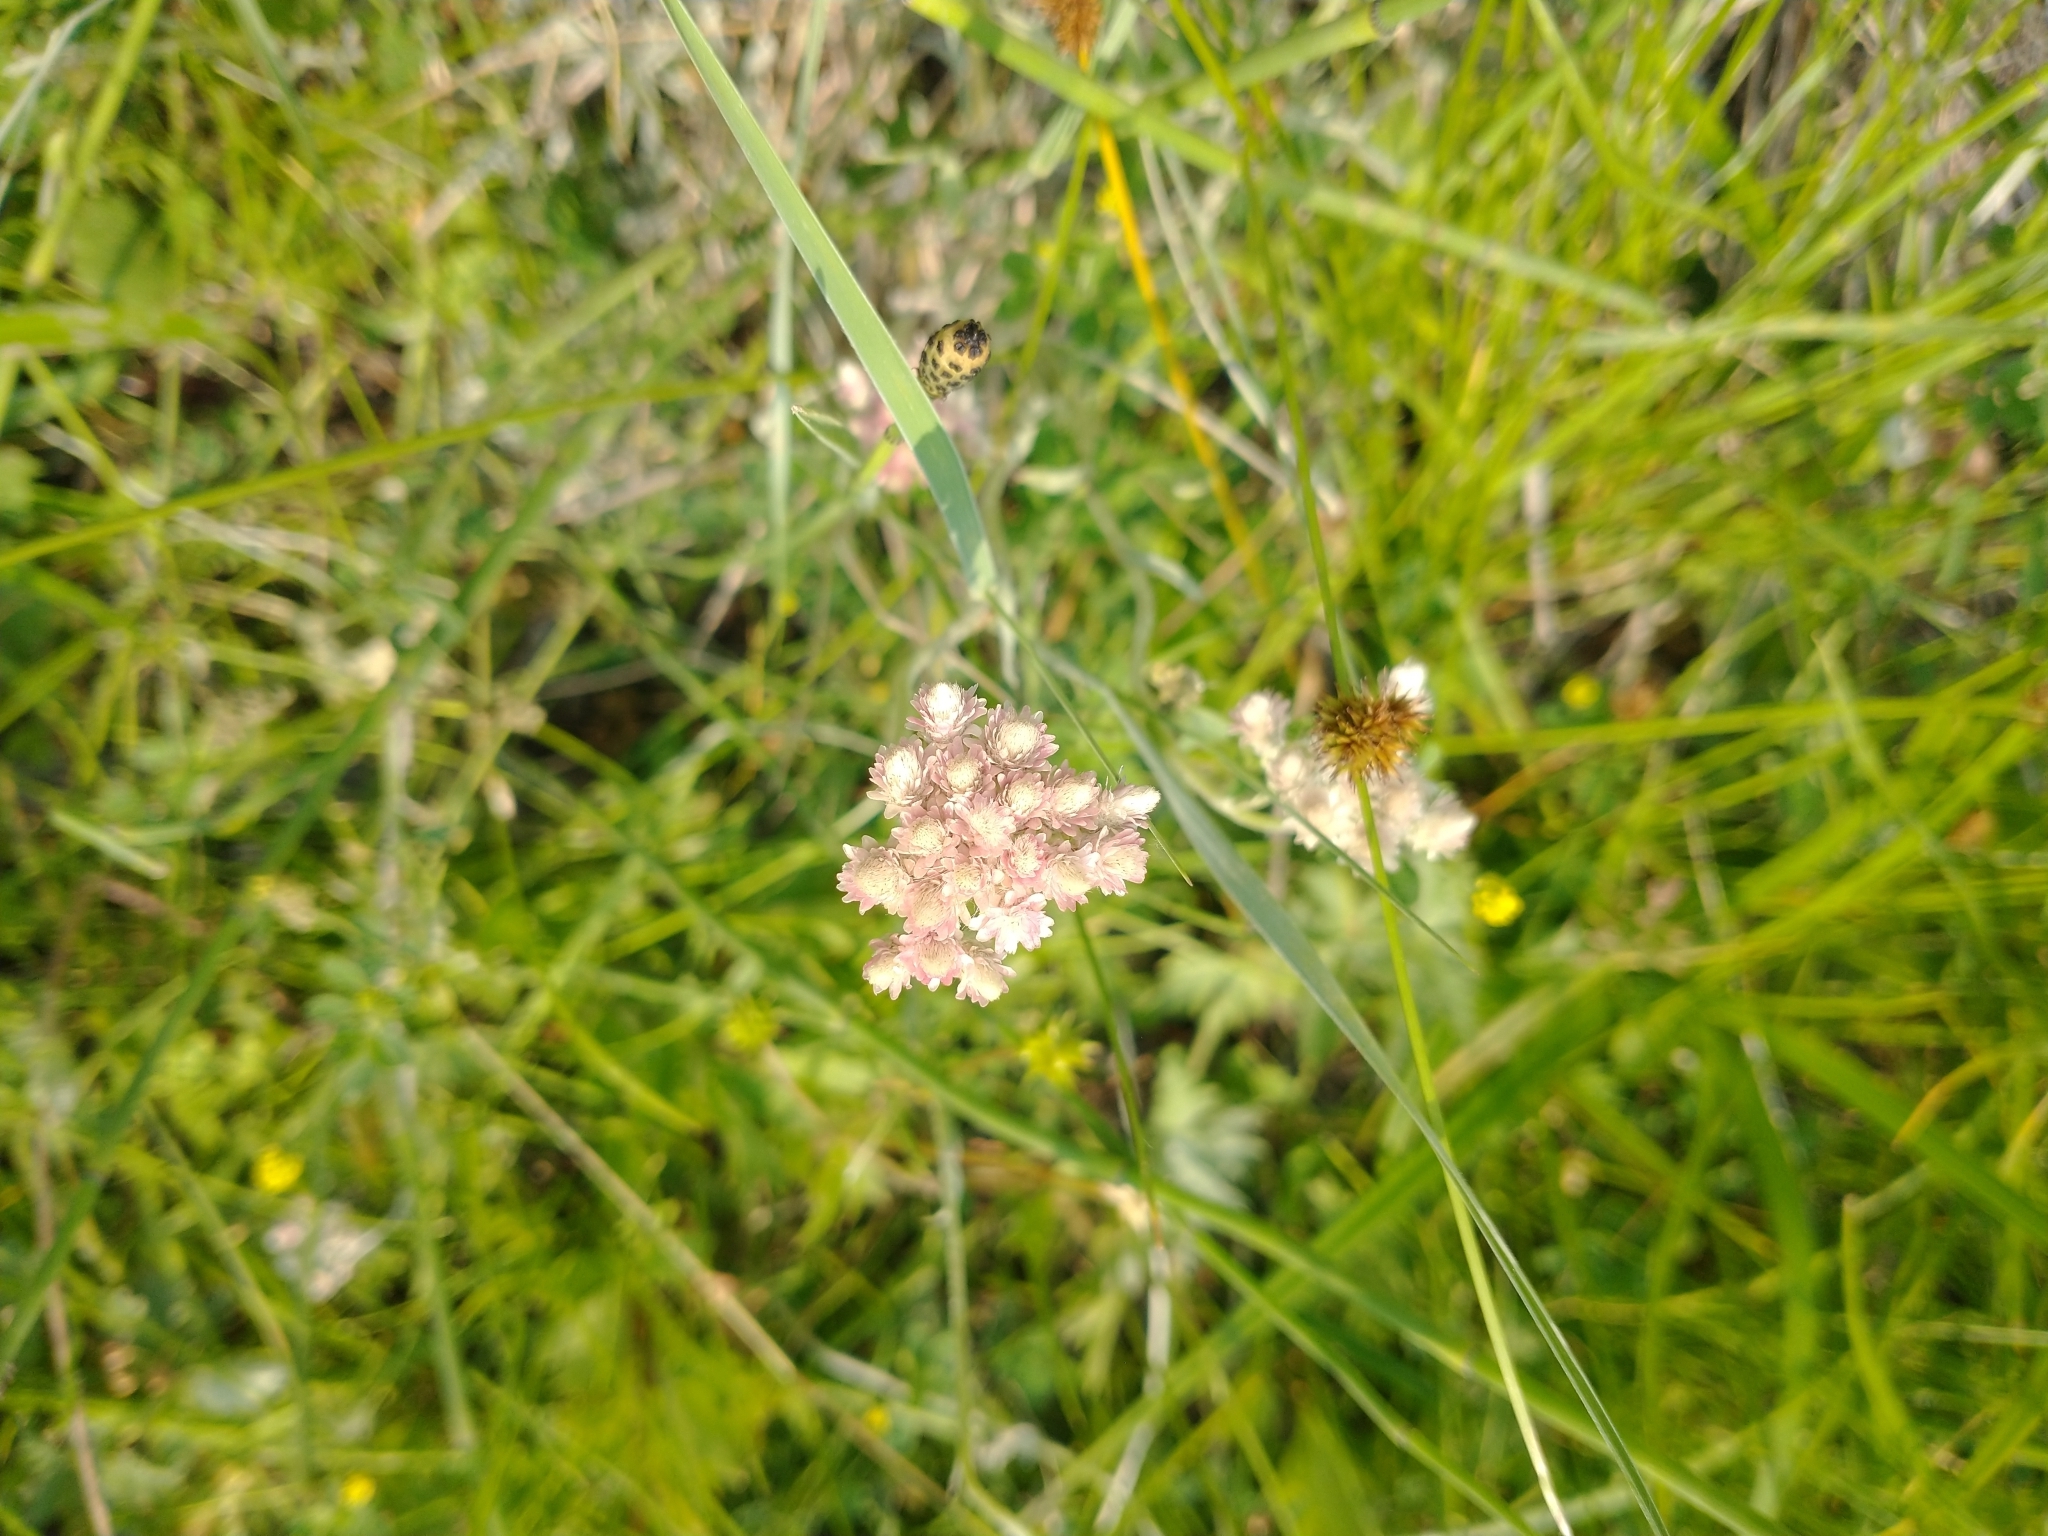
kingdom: Plantae
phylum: Tracheophyta
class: Magnoliopsida
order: Asterales
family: Asteraceae
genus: Antennaria
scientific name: Antennaria rosea
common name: Rosy pussytoes
